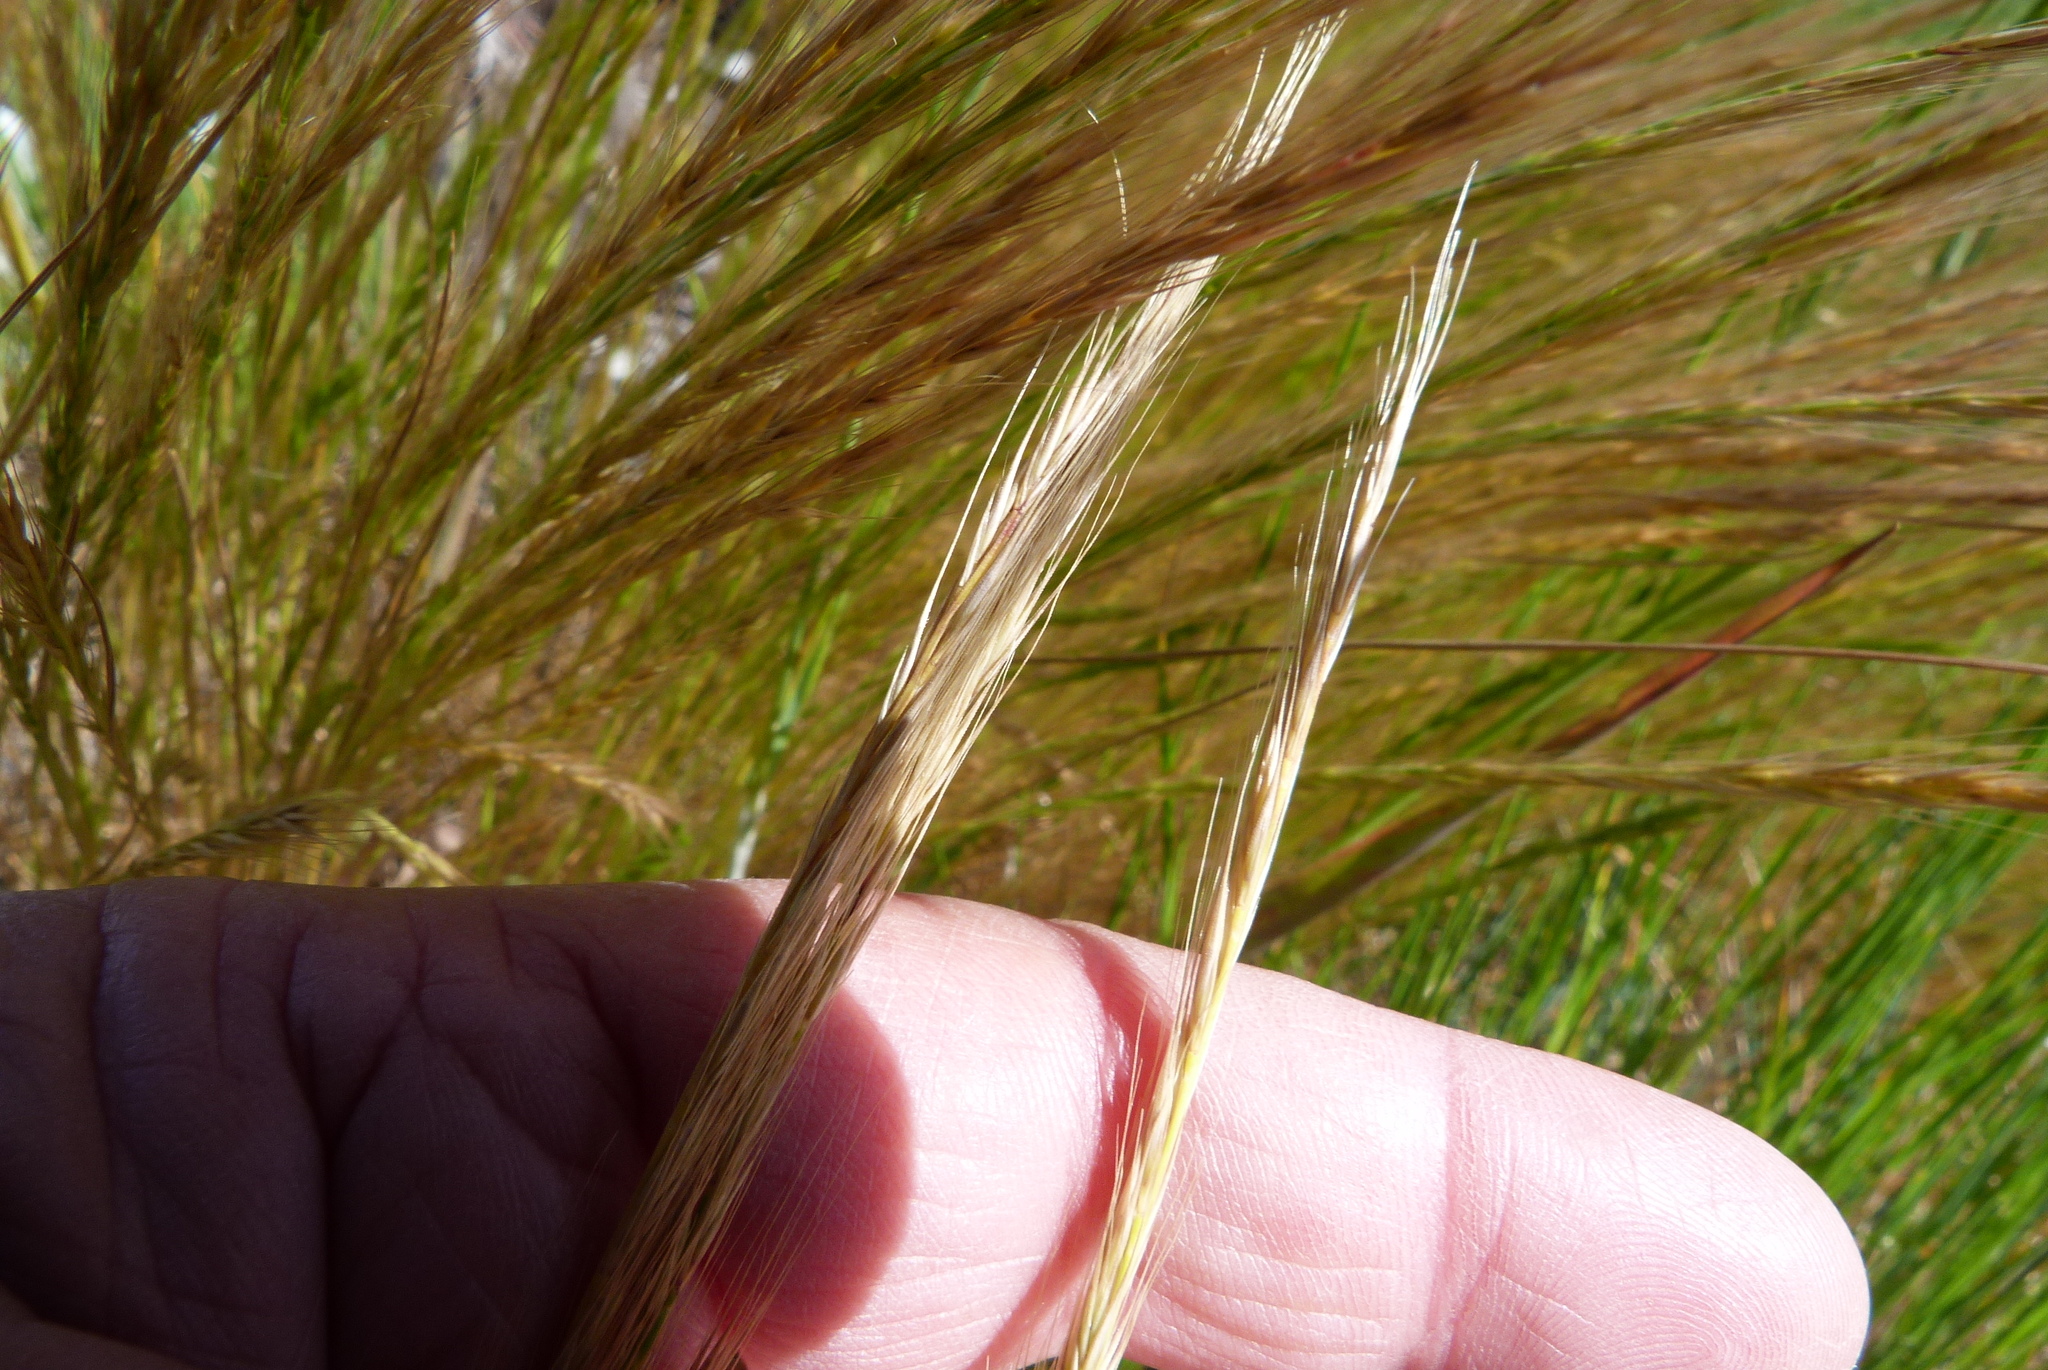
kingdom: Plantae
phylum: Tracheophyta
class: Liliopsida
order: Poales
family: Poaceae
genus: Festuca
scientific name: Festuca myuros
